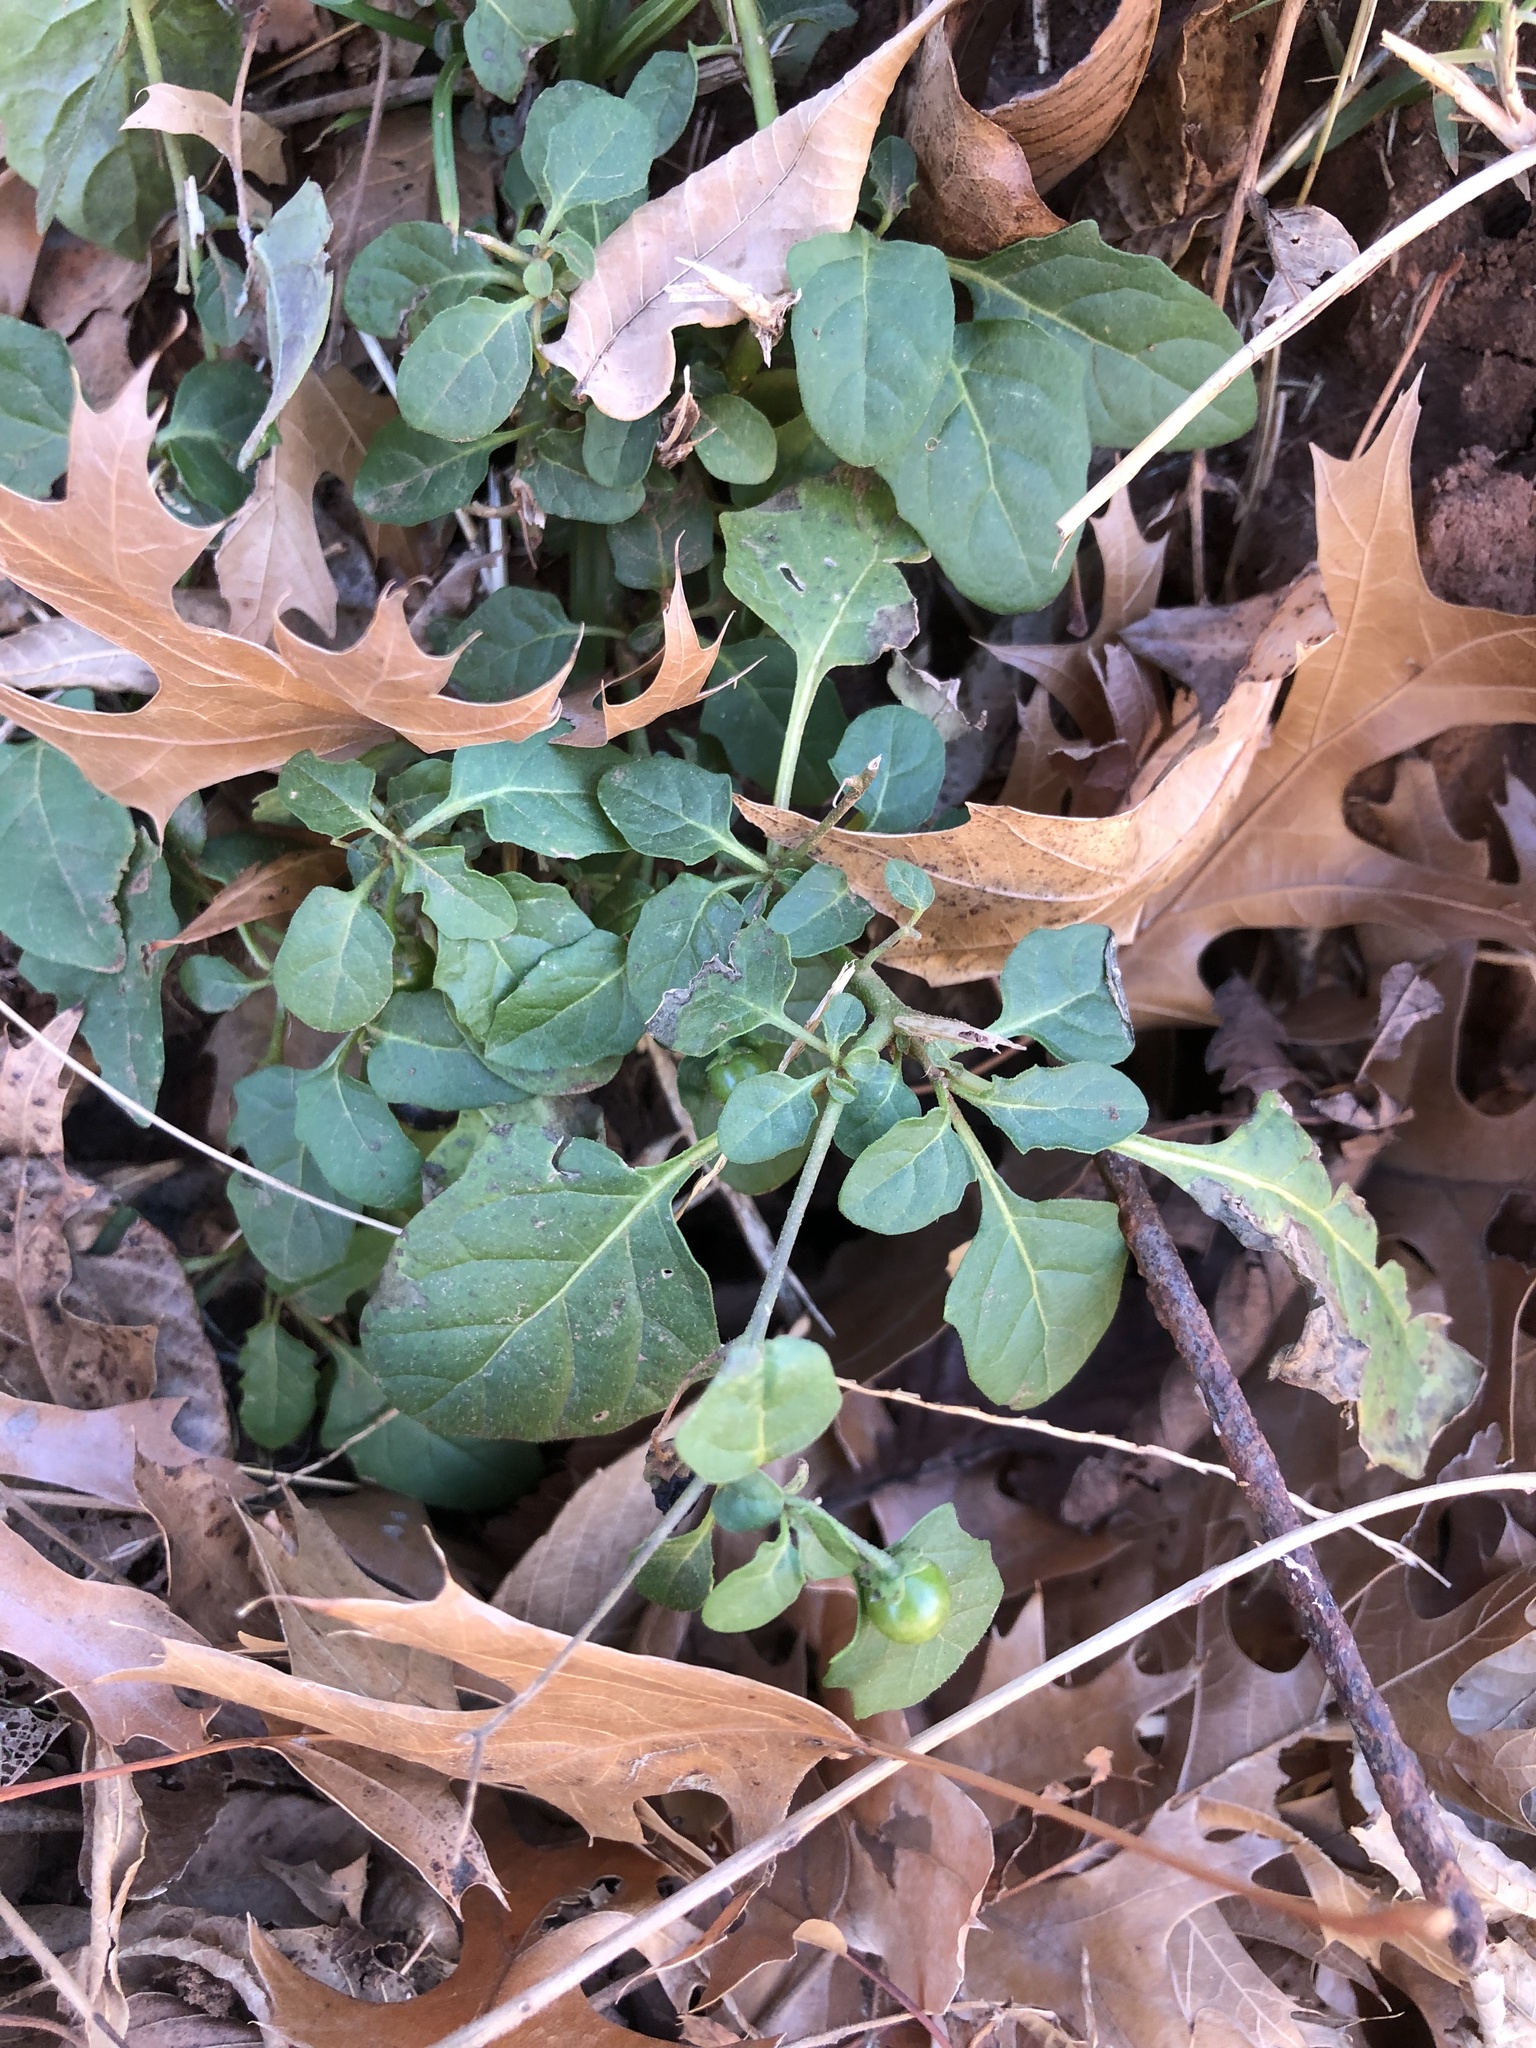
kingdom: Plantae
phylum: Tracheophyta
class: Magnoliopsida
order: Solanales
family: Solanaceae
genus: Solanum
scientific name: Solanum emulans
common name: Eastern black nightshade
